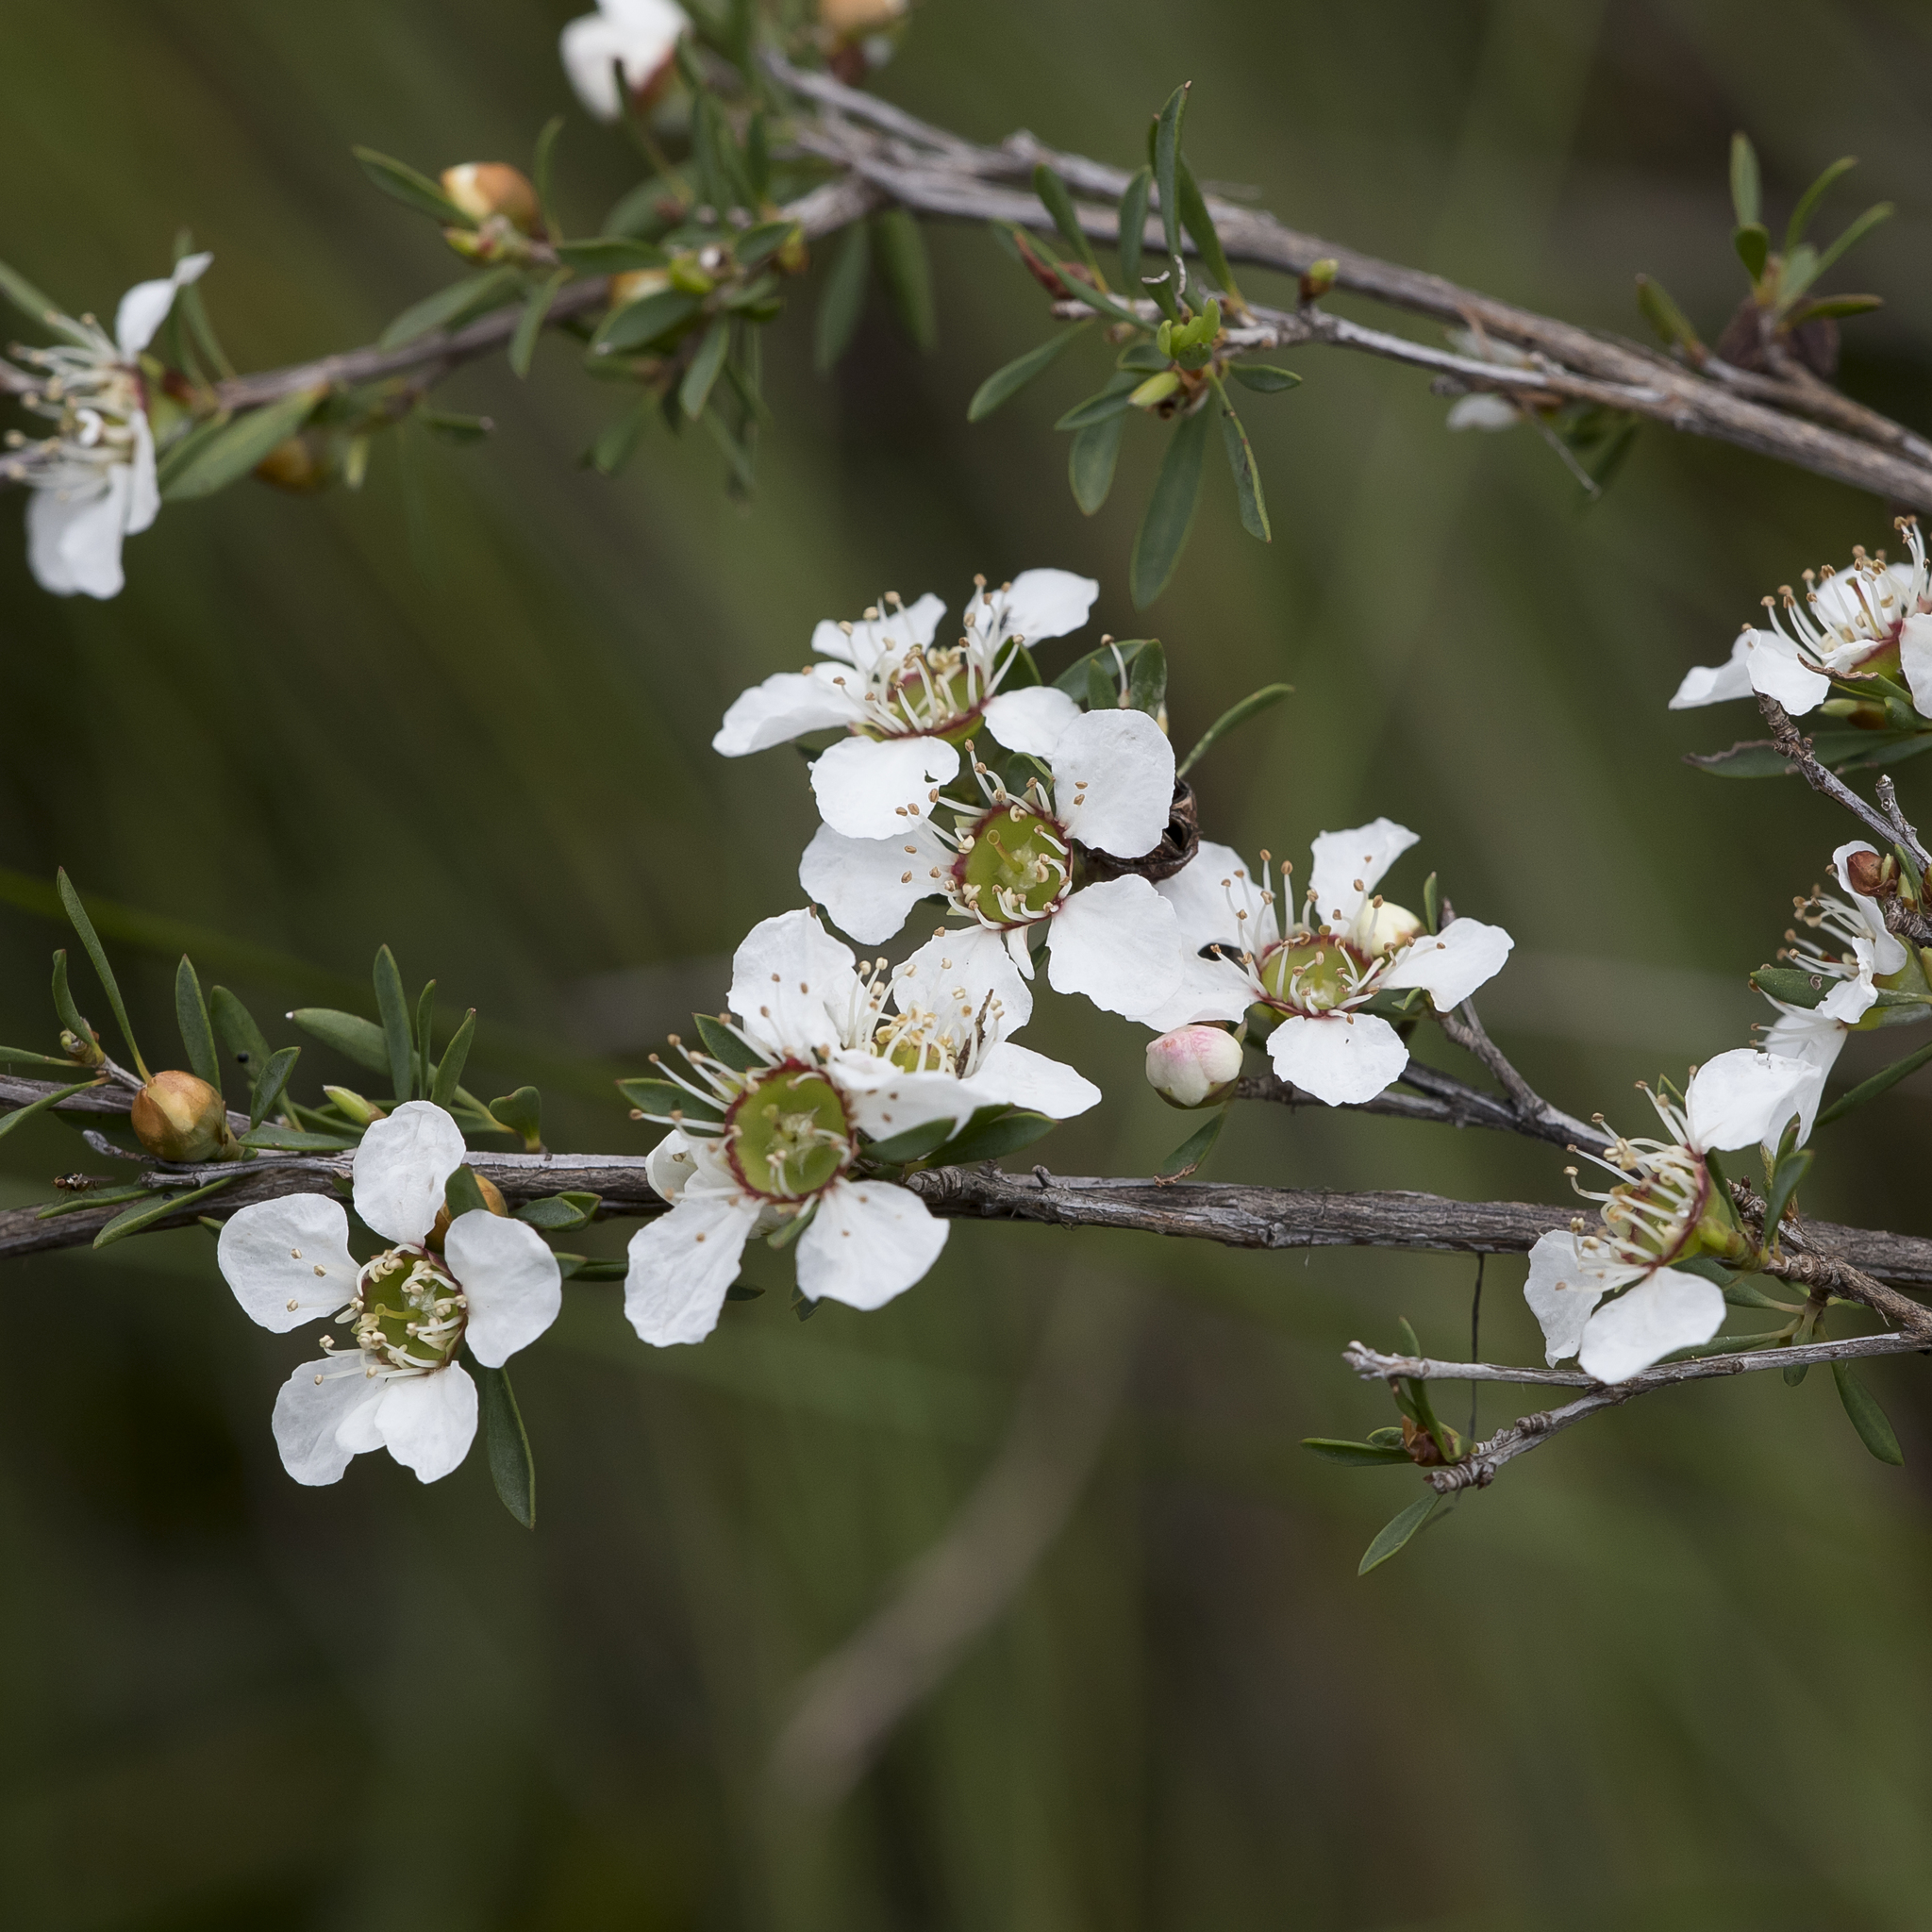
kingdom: Plantae
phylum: Tracheophyta
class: Magnoliopsida
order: Myrtales
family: Myrtaceae
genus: Leptospermum
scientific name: Leptospermum myrsinoides
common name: Heath teatree
